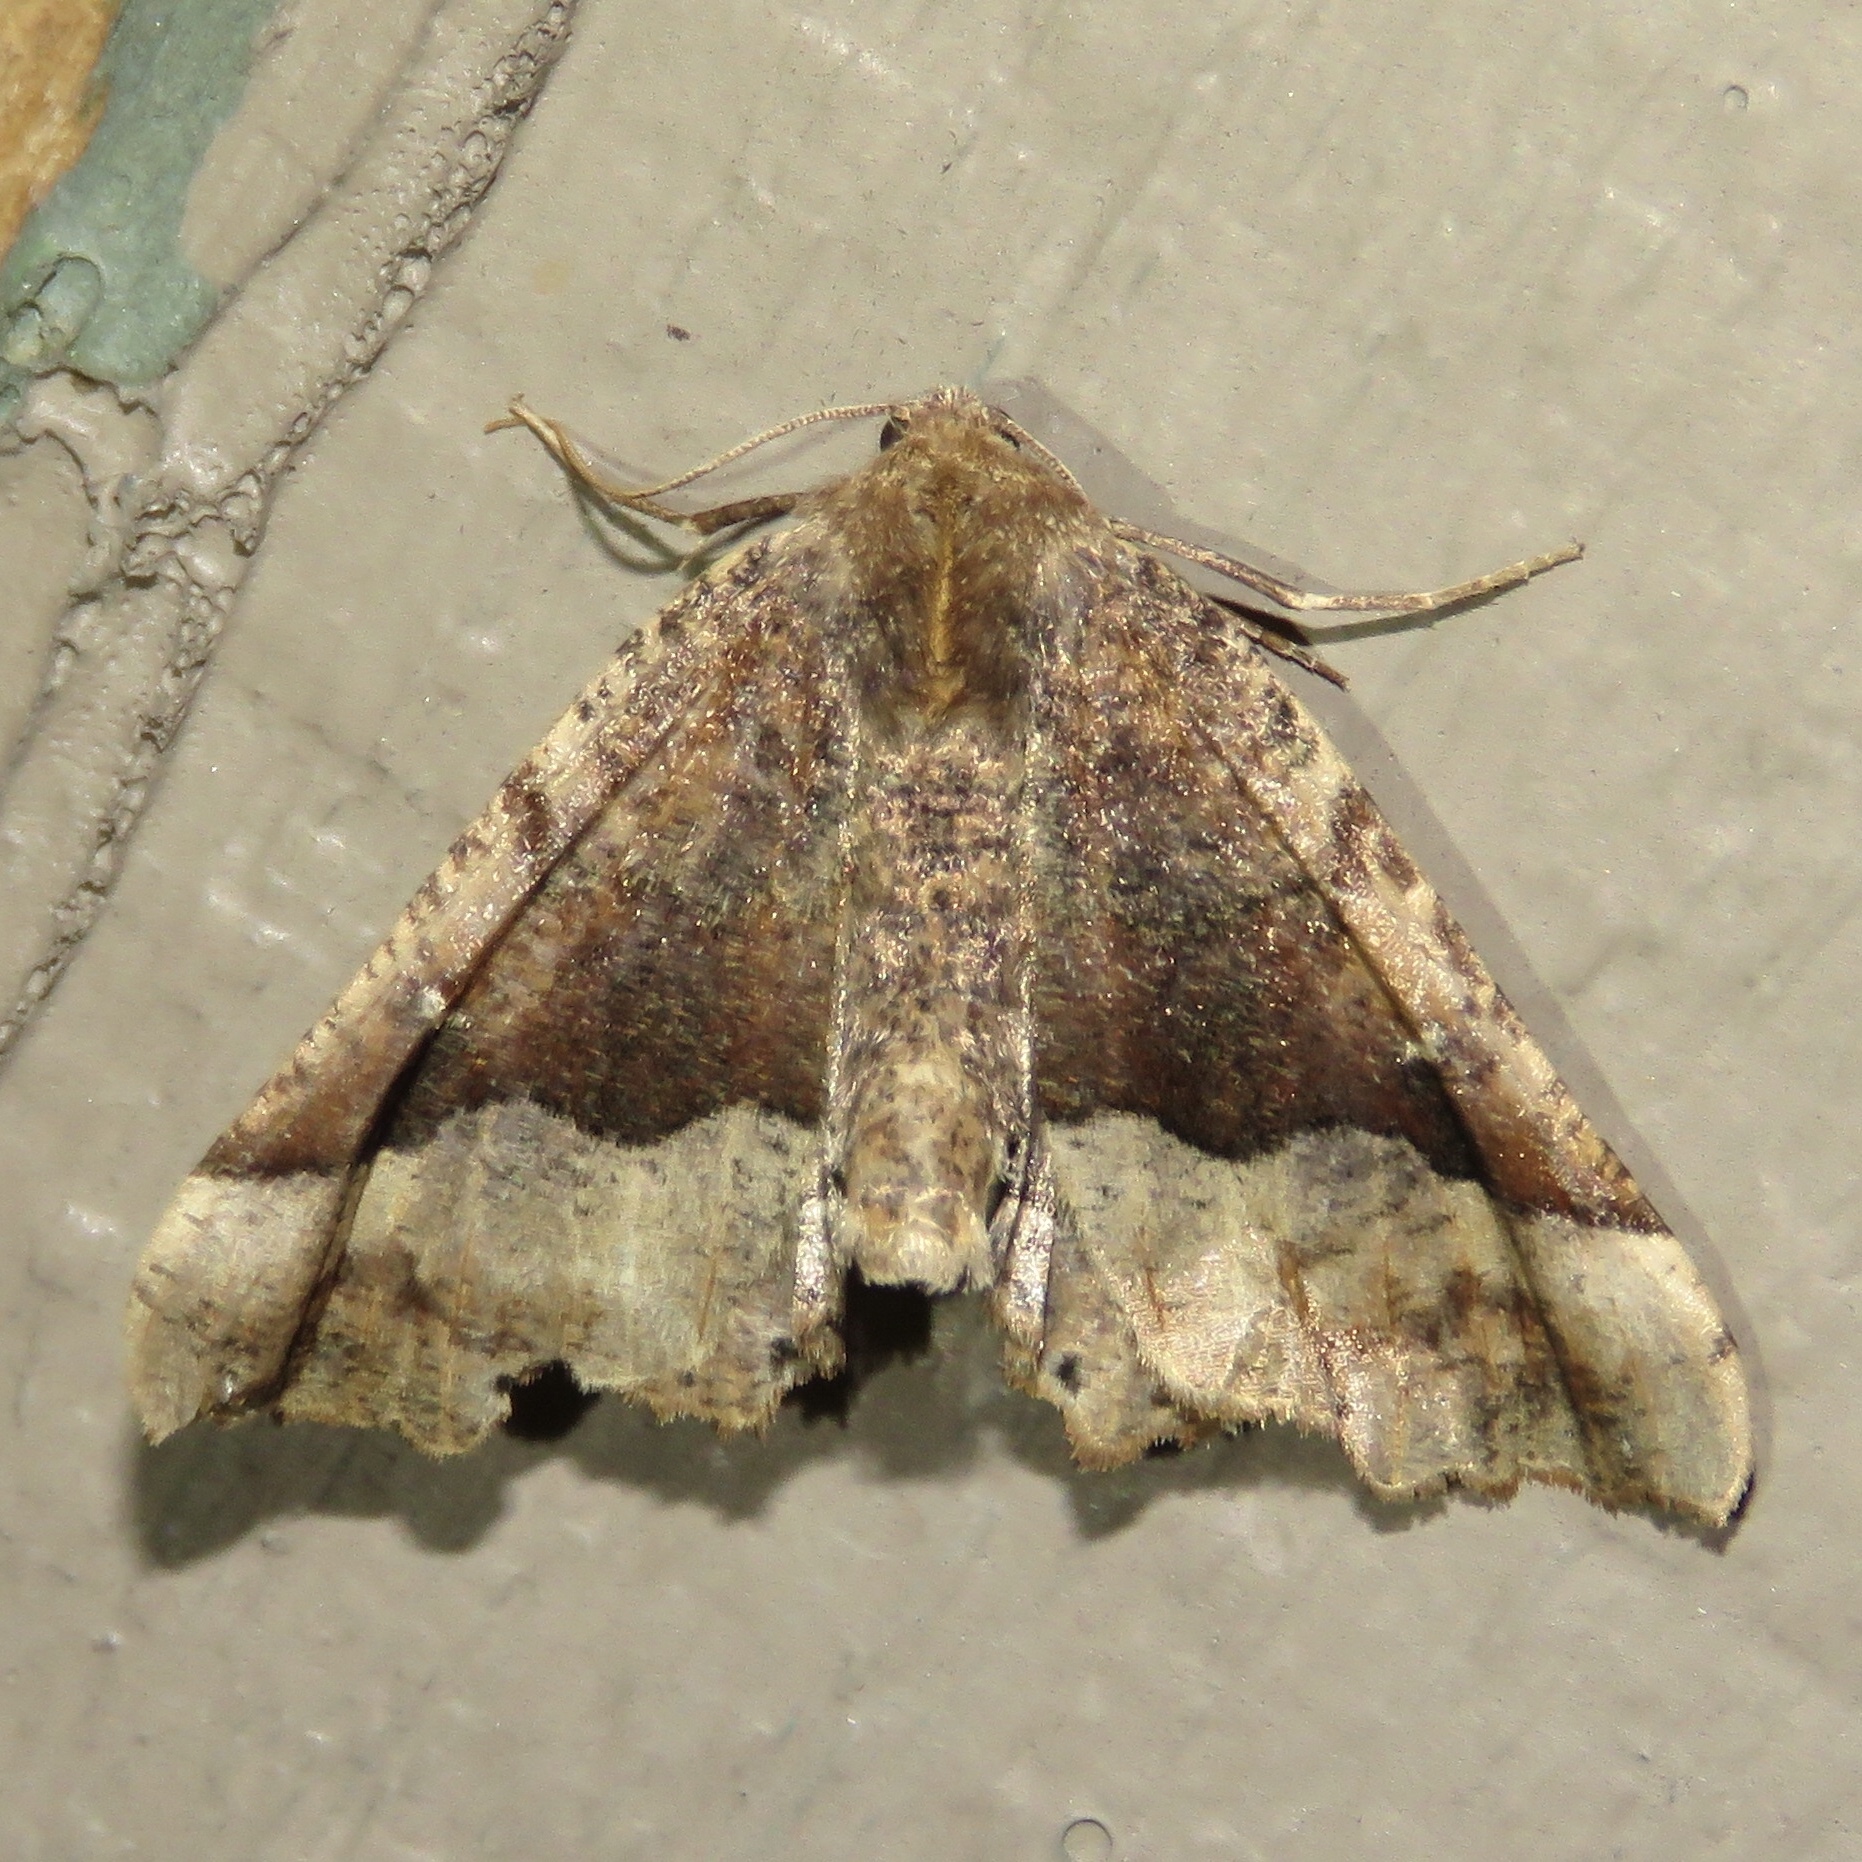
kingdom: Animalia
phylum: Arthropoda
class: Insecta
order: Lepidoptera
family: Geometridae
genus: Pero
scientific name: Pero morrisonaria
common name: Morrison's pero
